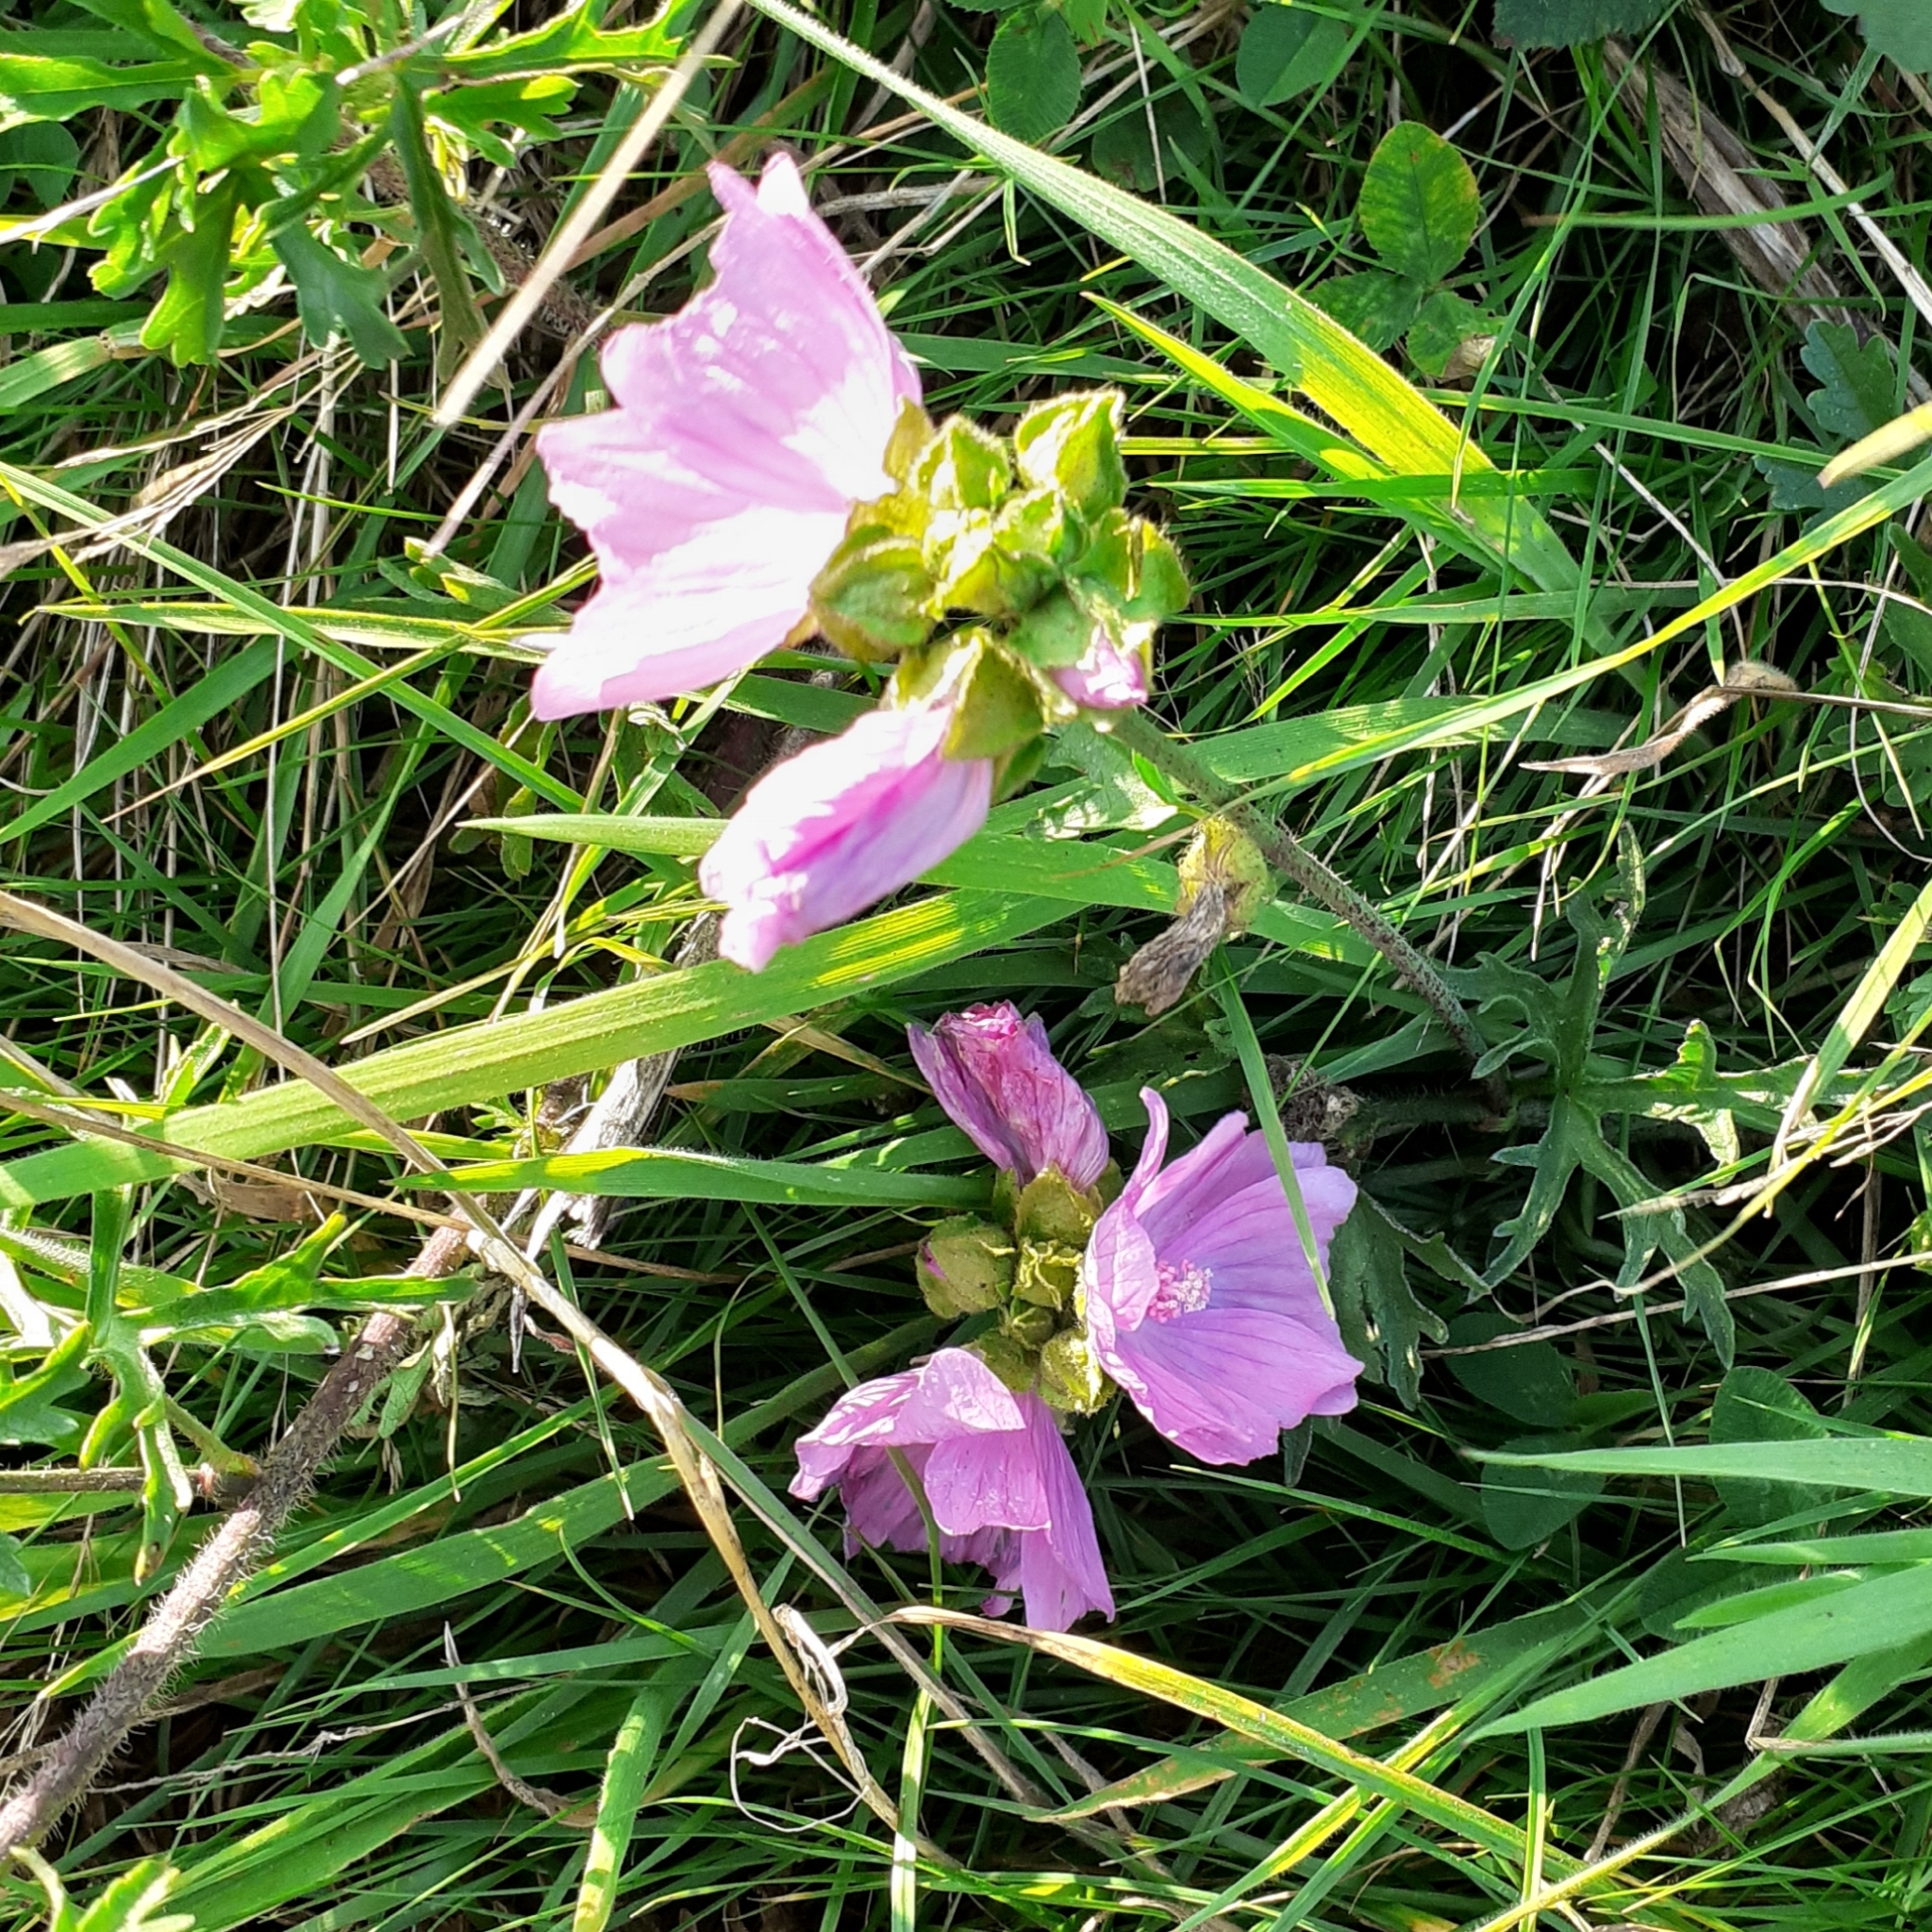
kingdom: Plantae
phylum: Tracheophyta
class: Magnoliopsida
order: Malvales
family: Malvaceae
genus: Malva
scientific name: Malva moschata
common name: Musk mallow
